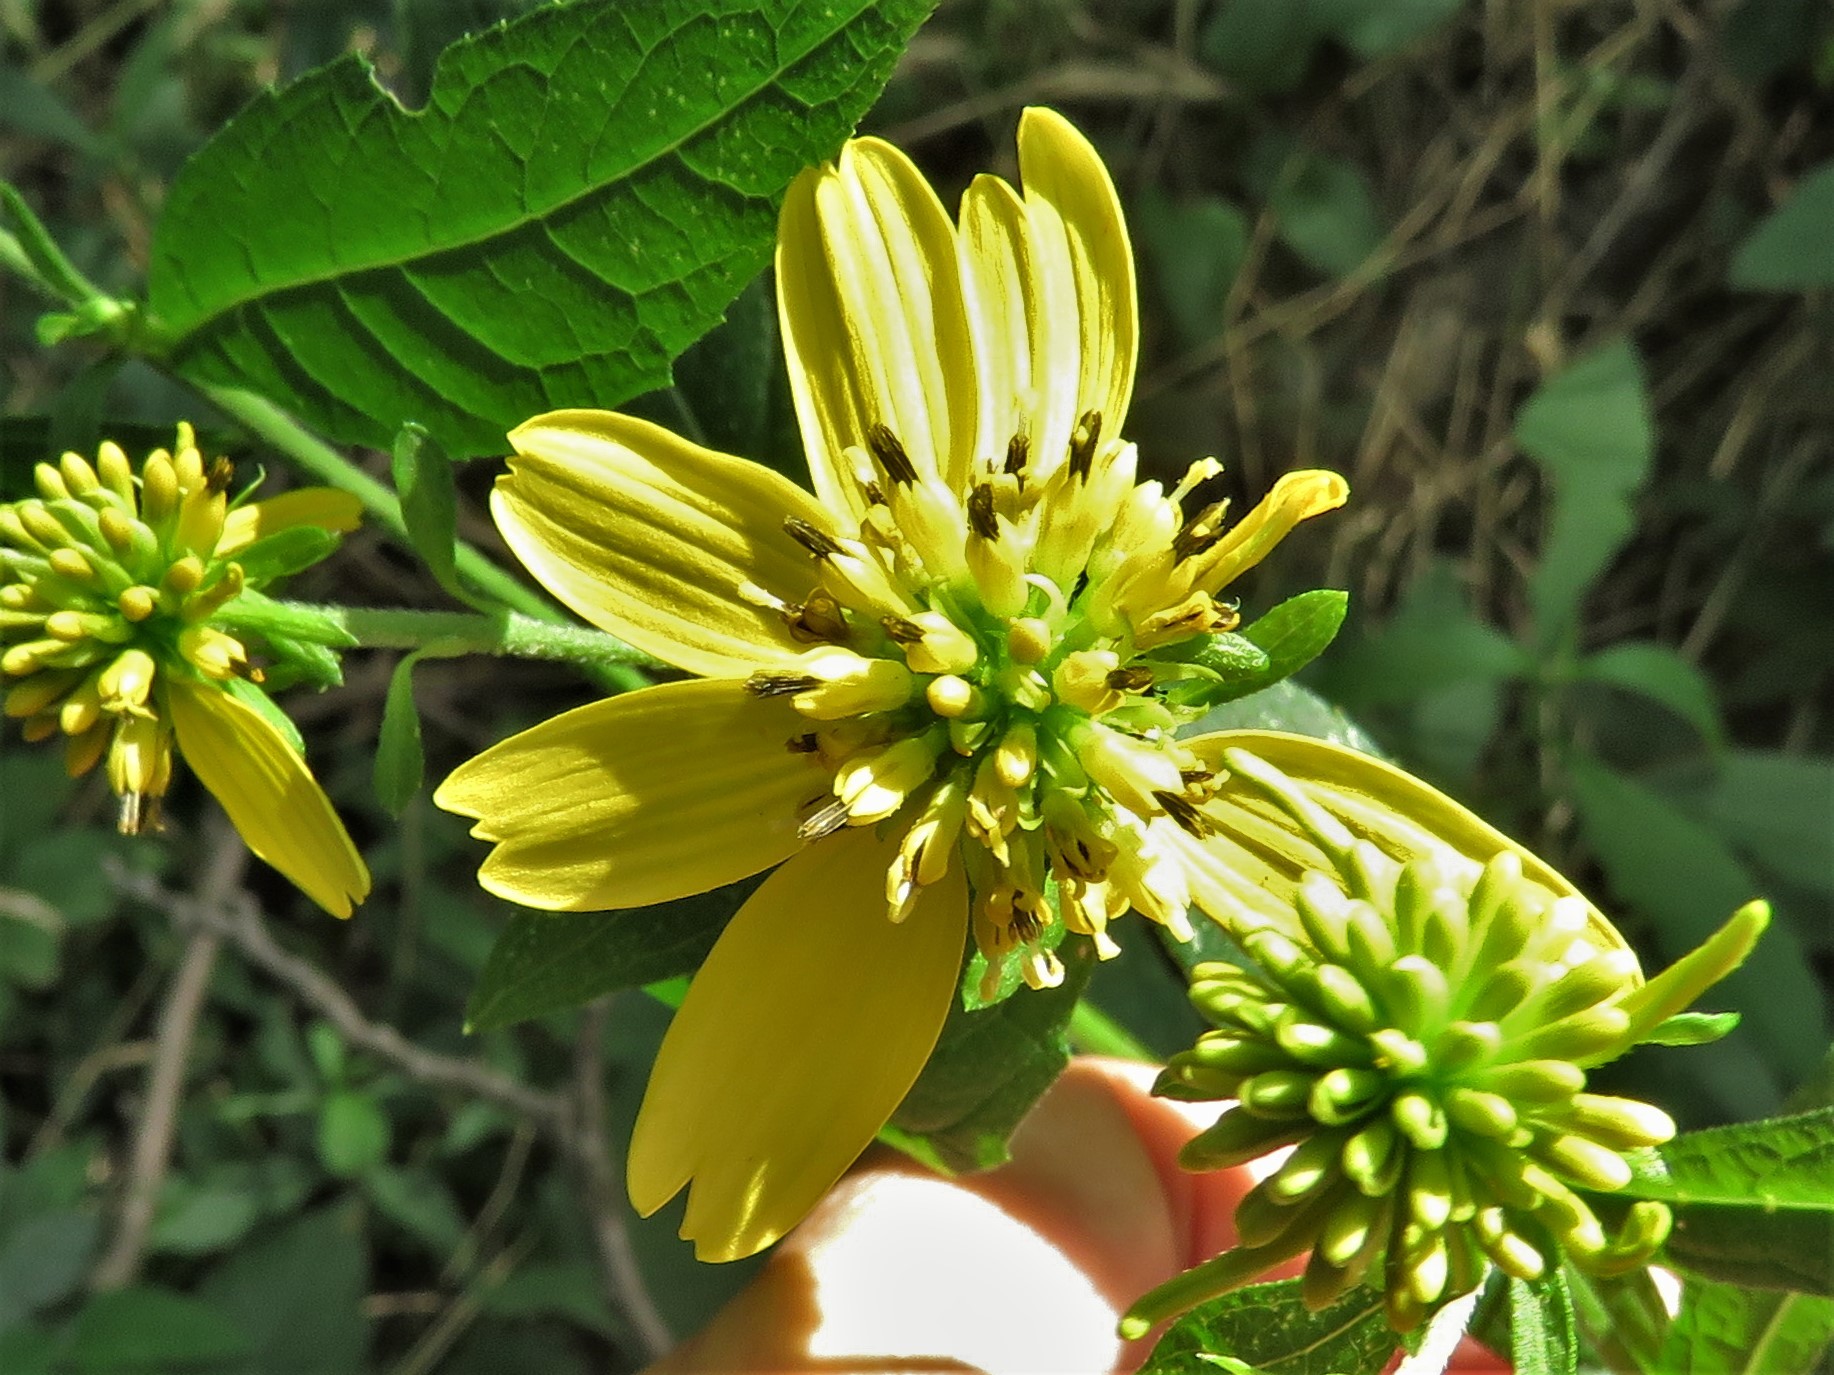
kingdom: Plantae
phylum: Tracheophyta
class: Magnoliopsida
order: Asterales
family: Asteraceae
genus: Verbesina
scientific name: Verbesina alternifolia
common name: Wingstem
